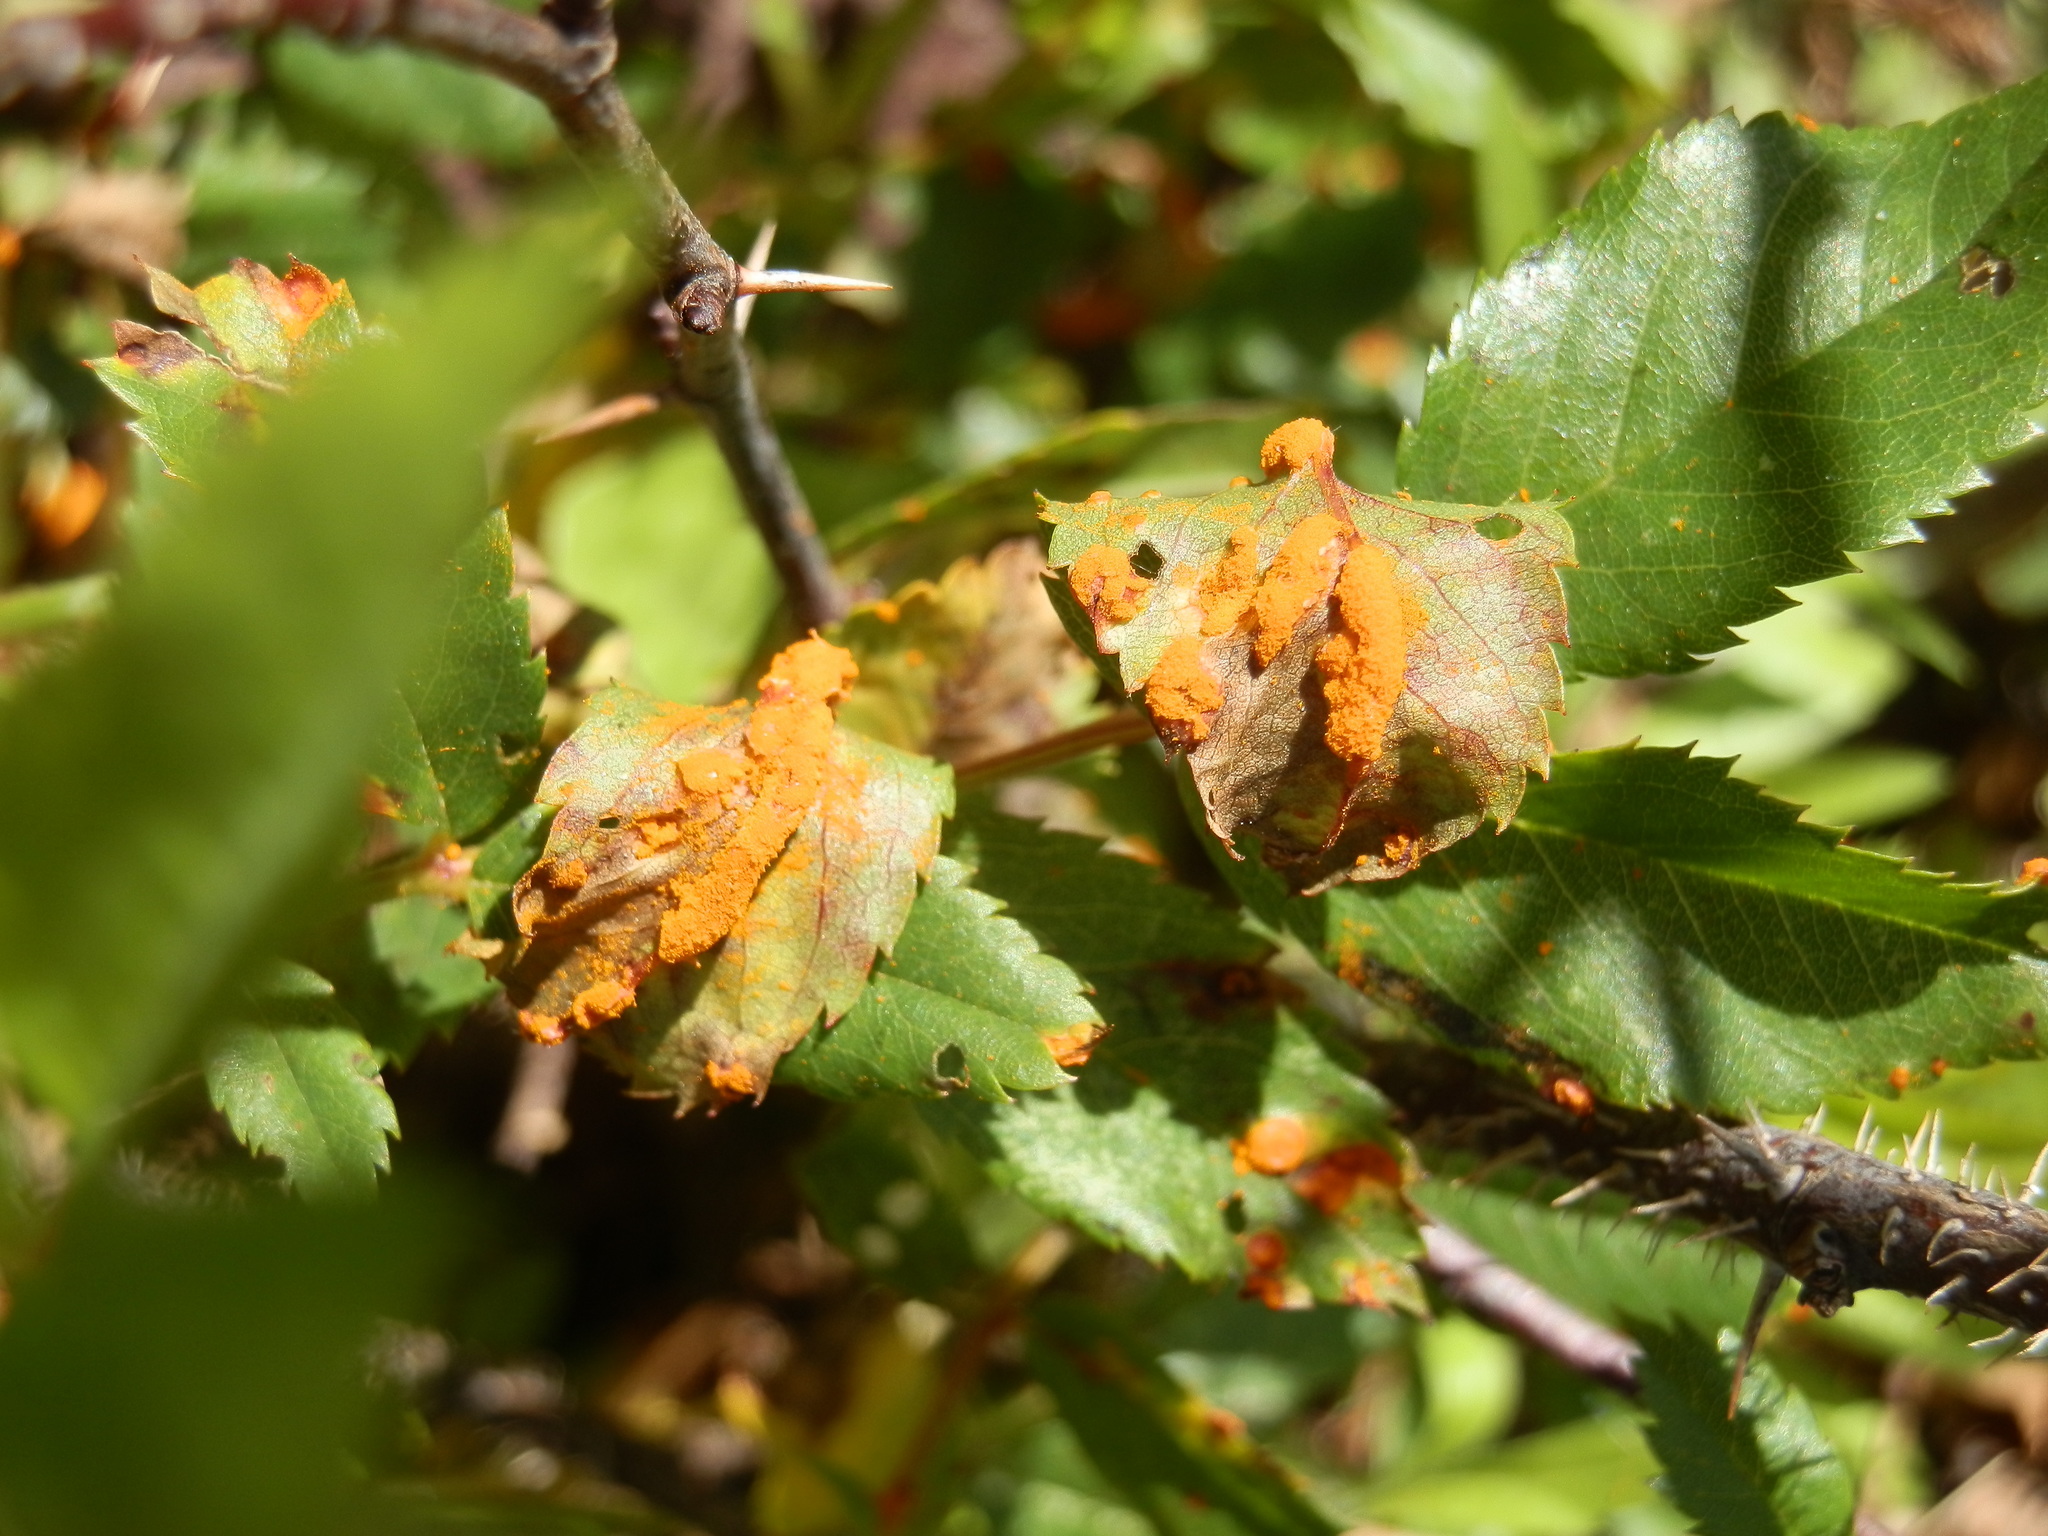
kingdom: Fungi
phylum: Basidiomycota
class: Pucciniomycetes
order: Pucciniales
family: Phragmidiaceae
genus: Phragmidium
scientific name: Phragmidium mucronatum
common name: Rose rust
